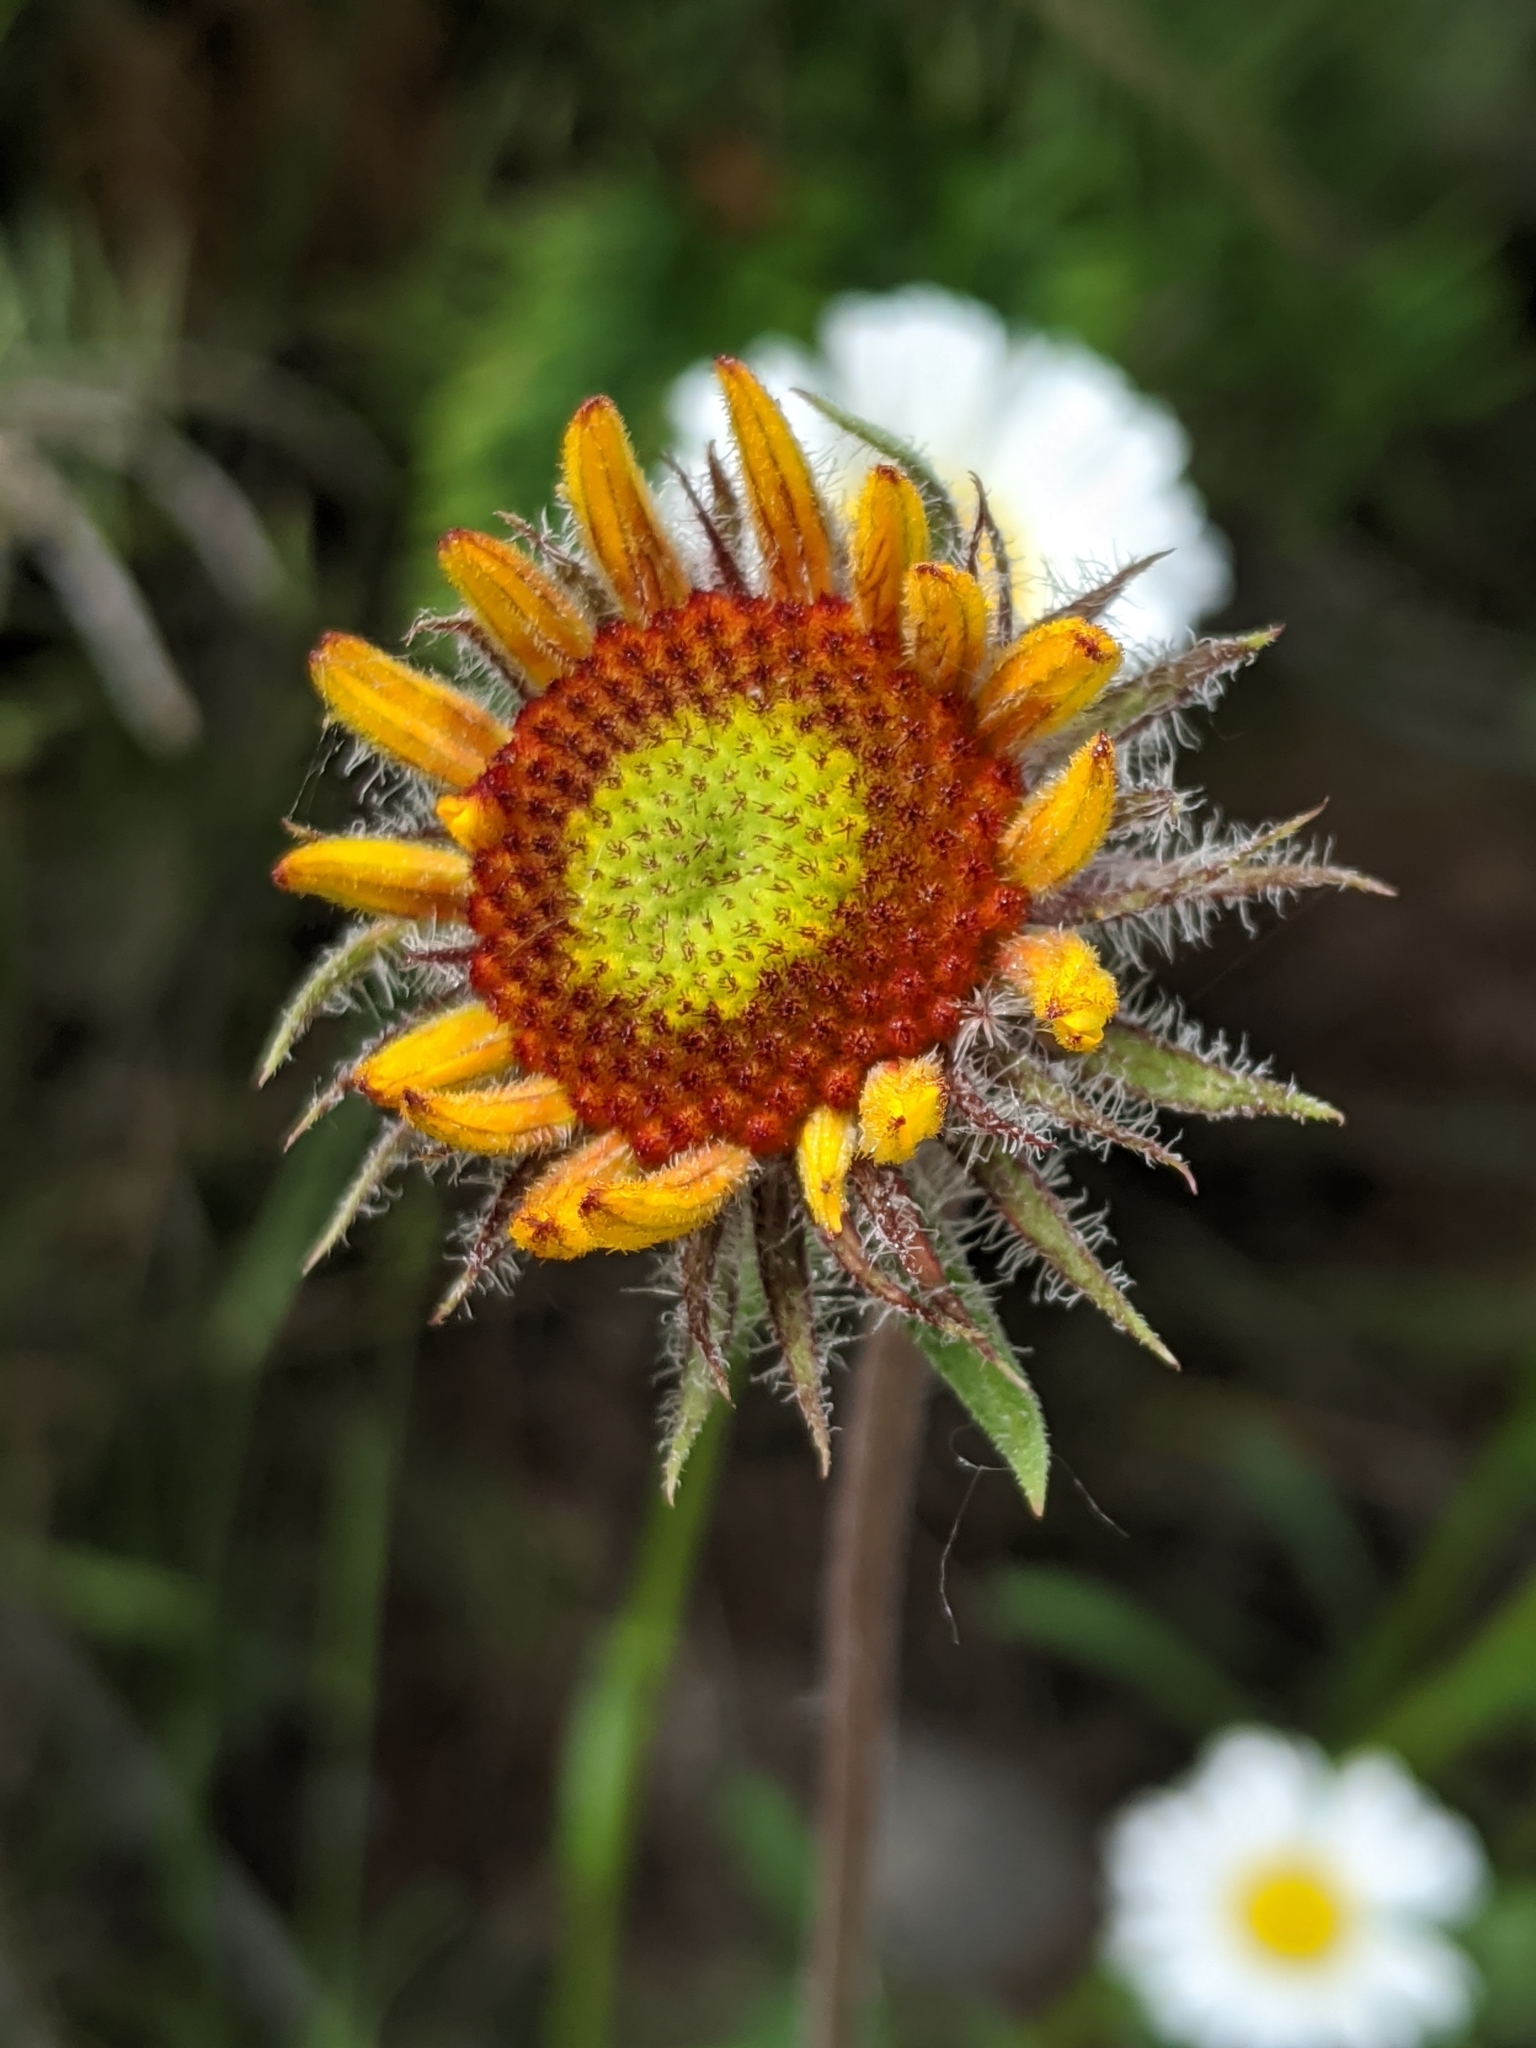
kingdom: Plantae
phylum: Tracheophyta
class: Magnoliopsida
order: Asterales
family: Asteraceae
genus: Gaillardia
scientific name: Gaillardia aristata
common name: Blanket-flower
